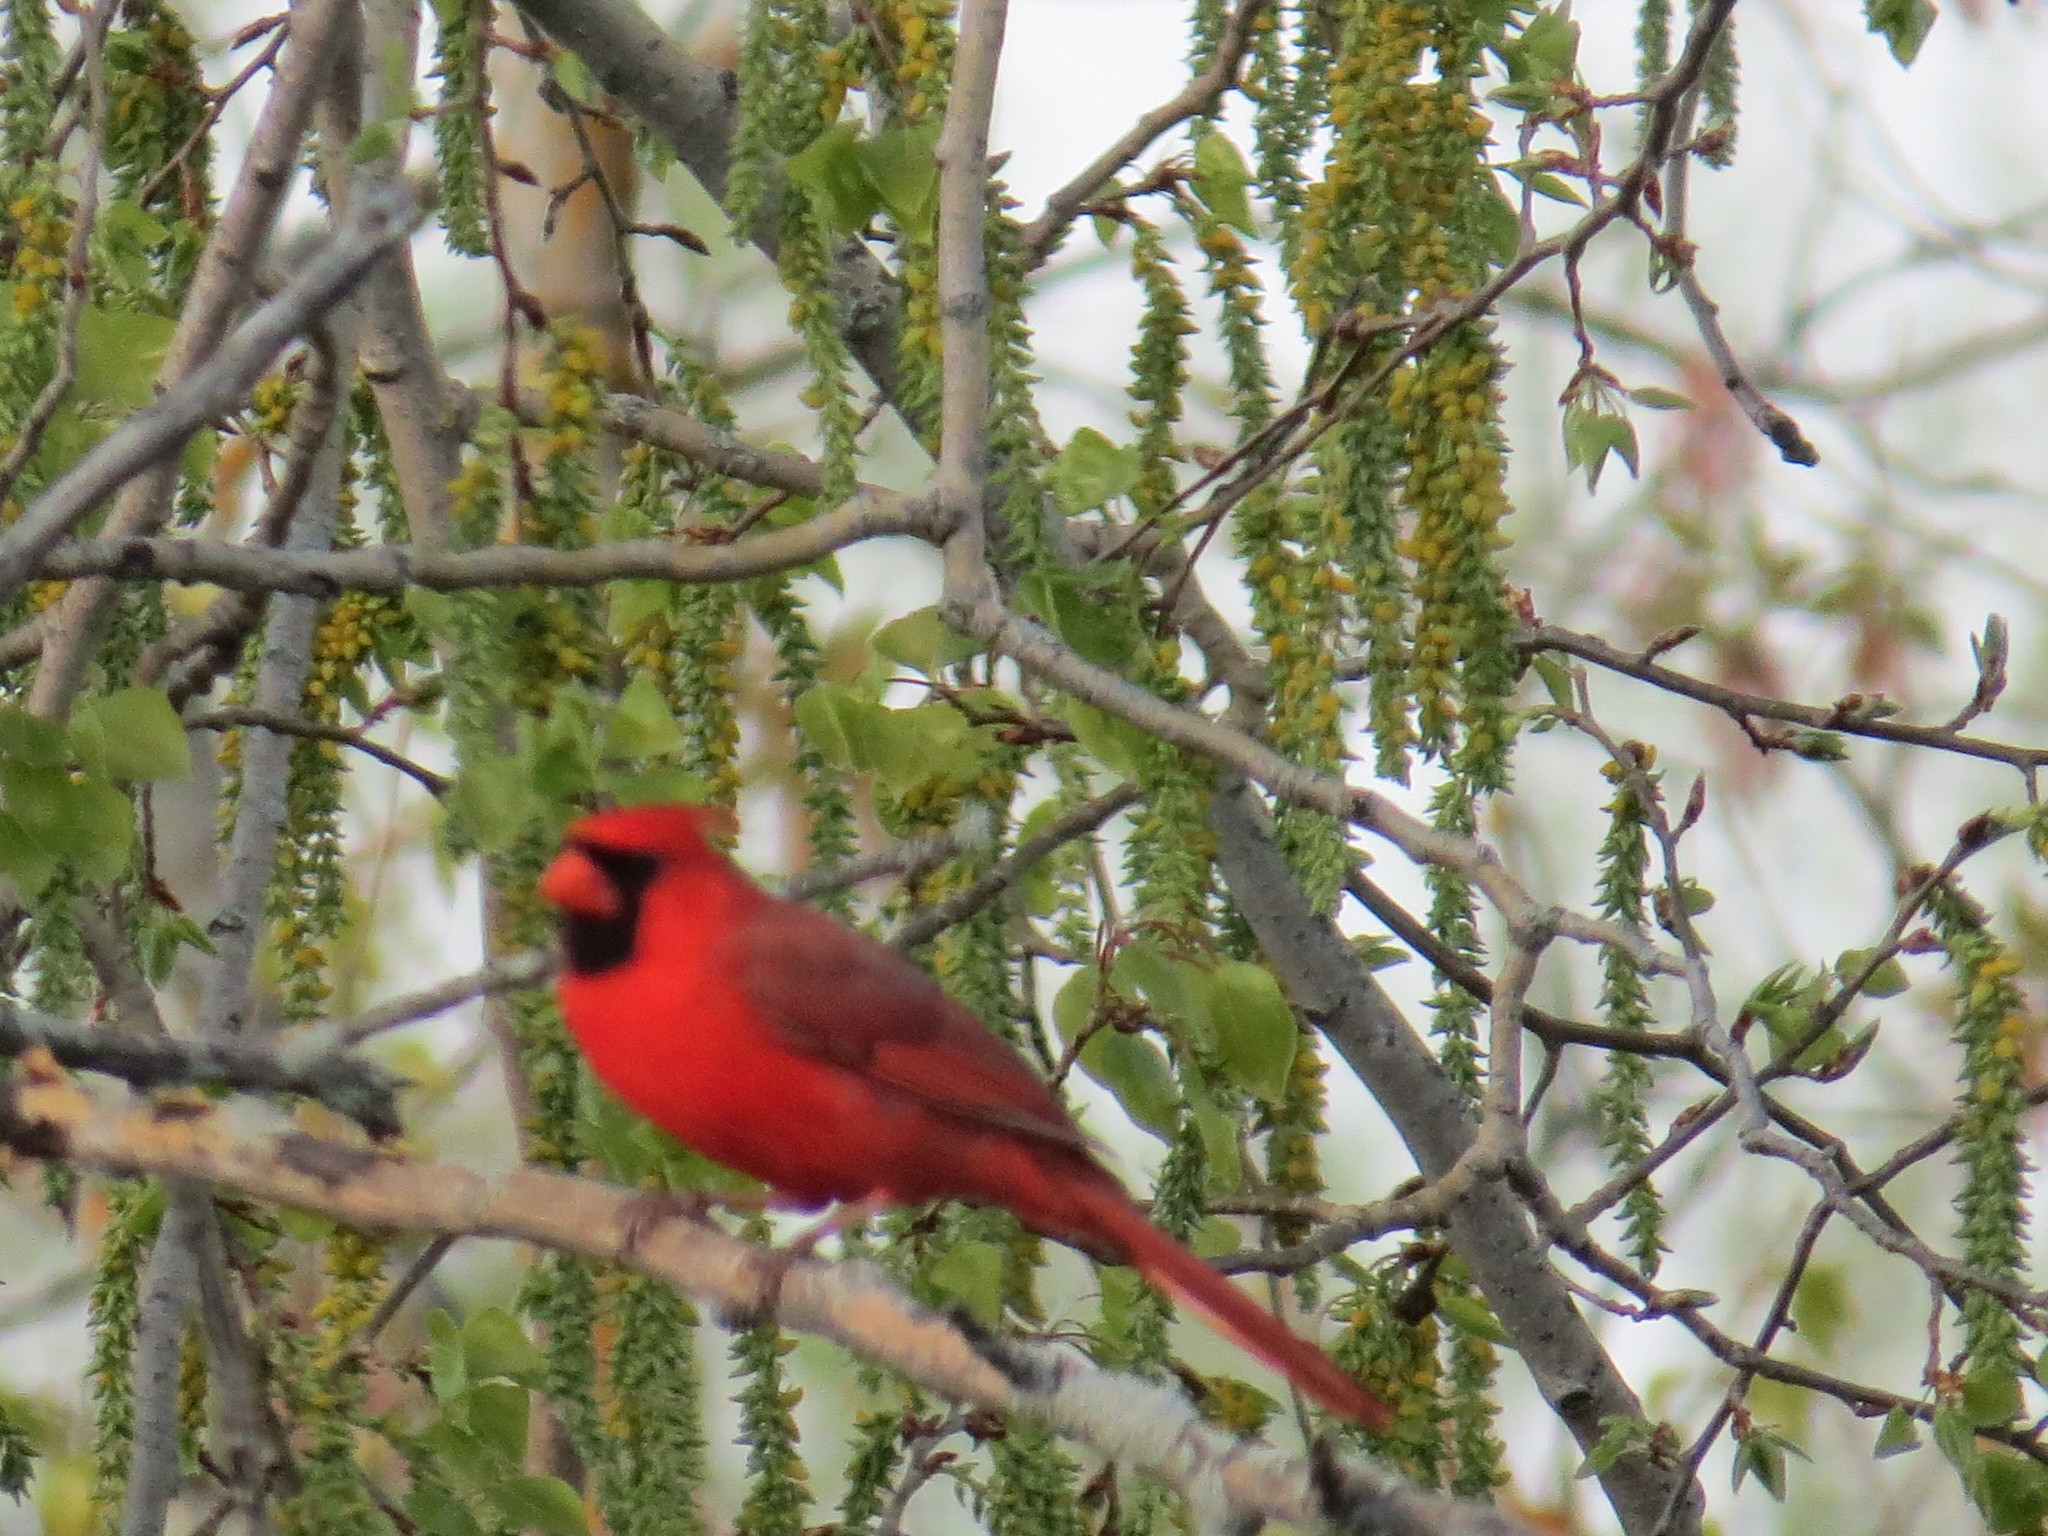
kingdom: Animalia
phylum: Chordata
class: Aves
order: Passeriformes
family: Cardinalidae
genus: Cardinalis
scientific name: Cardinalis cardinalis
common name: Northern cardinal
